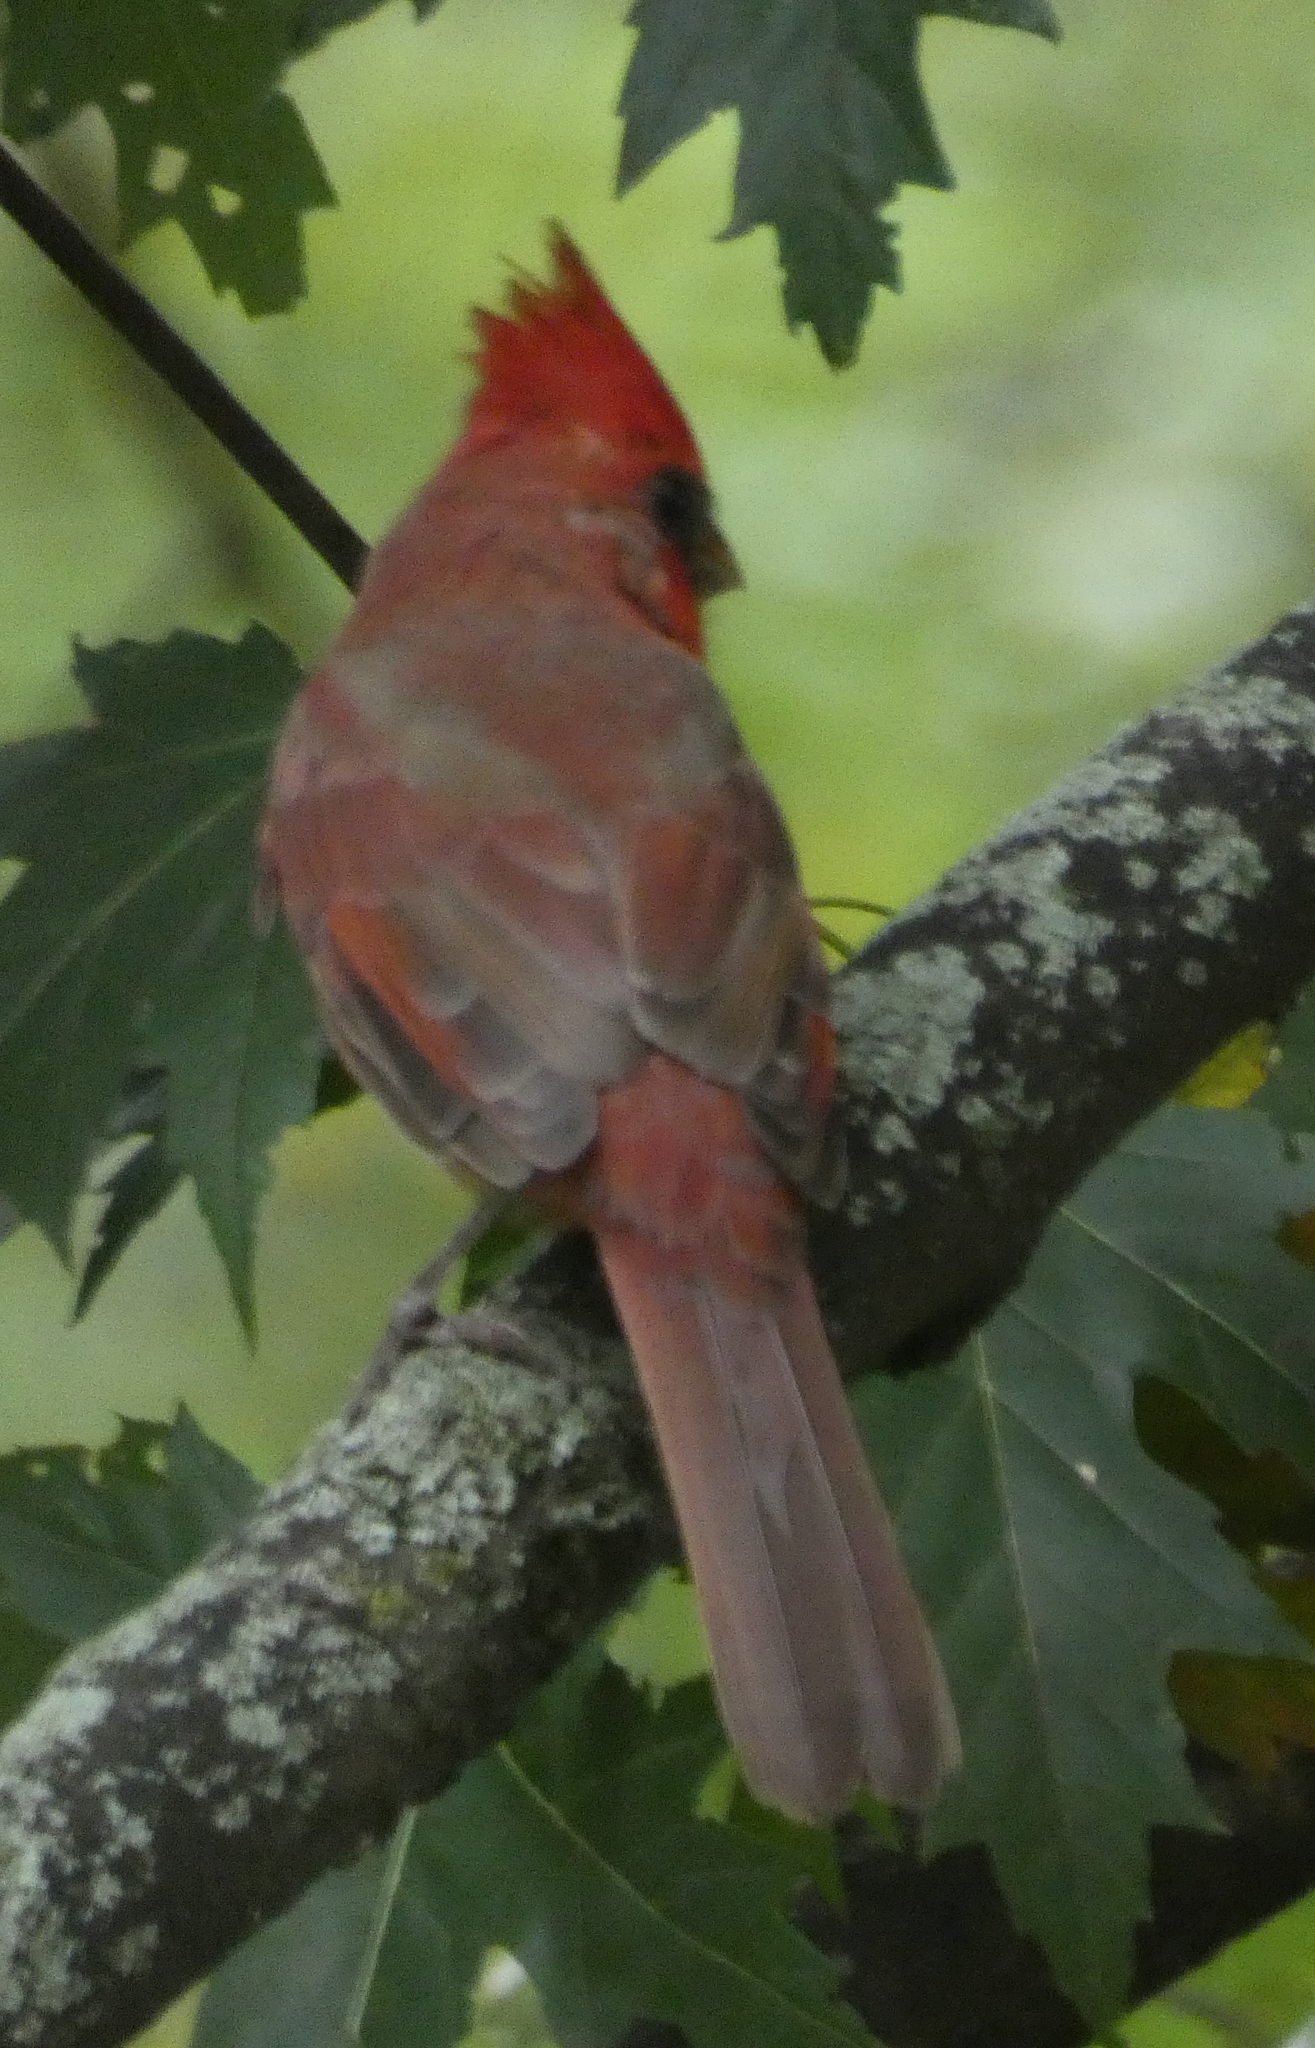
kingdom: Animalia
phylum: Chordata
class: Aves
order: Passeriformes
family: Cardinalidae
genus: Cardinalis
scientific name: Cardinalis cardinalis
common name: Northern cardinal
